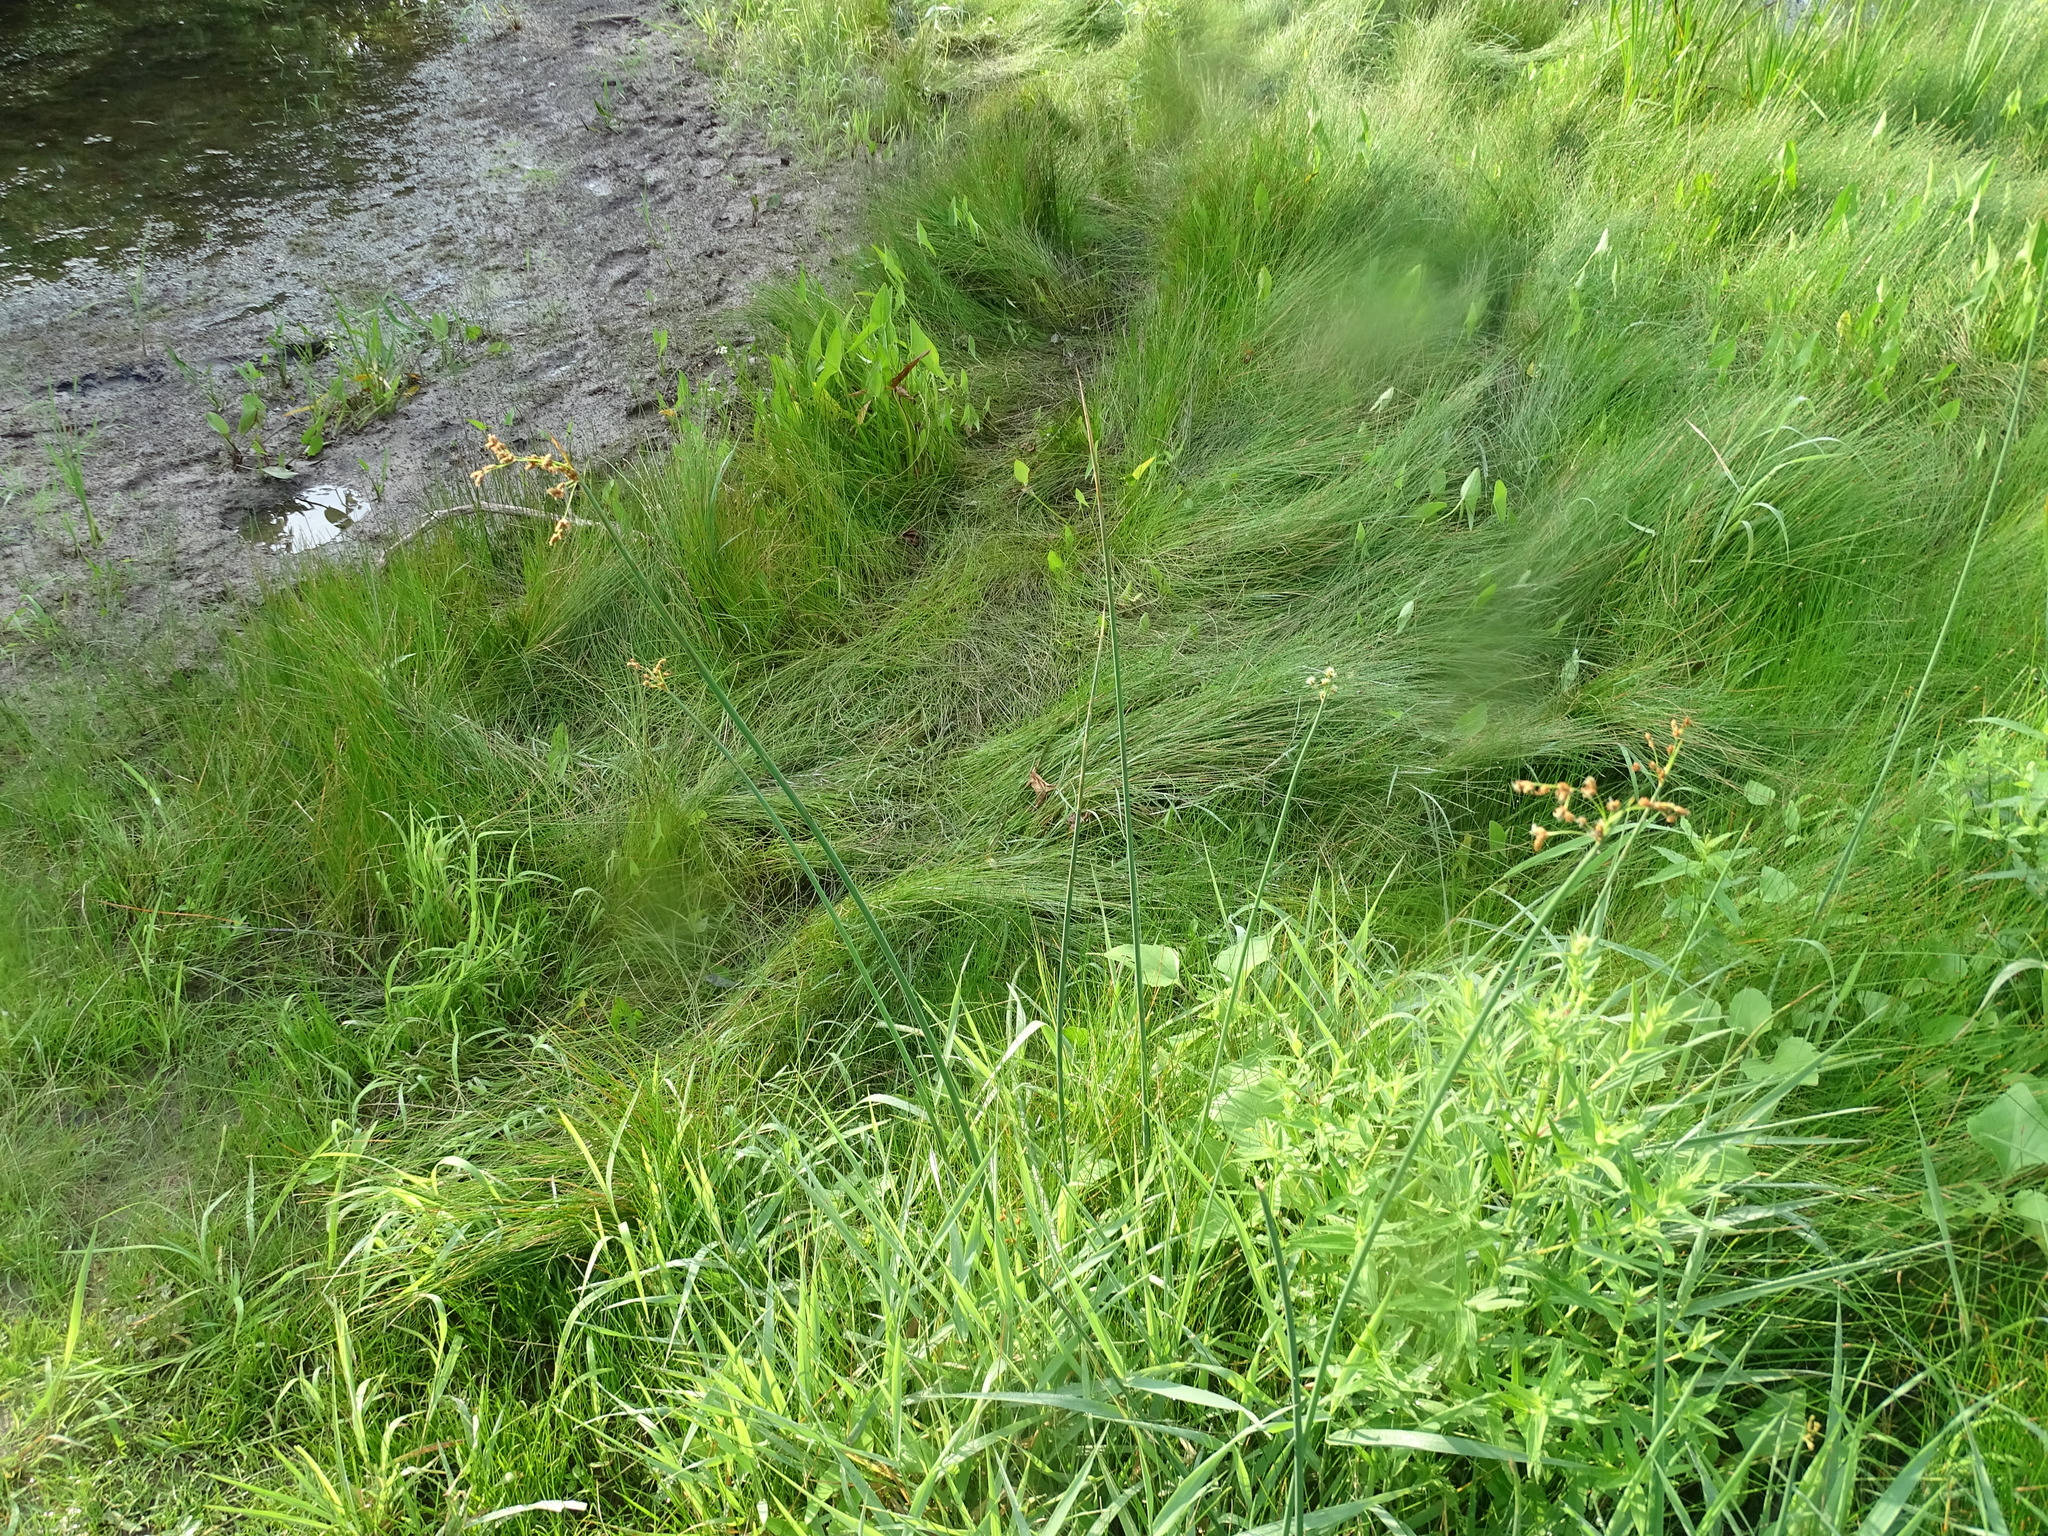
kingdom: Plantae
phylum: Tracheophyta
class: Liliopsida
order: Poales
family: Cyperaceae
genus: Schoenoplectus
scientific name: Schoenoplectus tabernaemontani
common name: Grey club-rush
